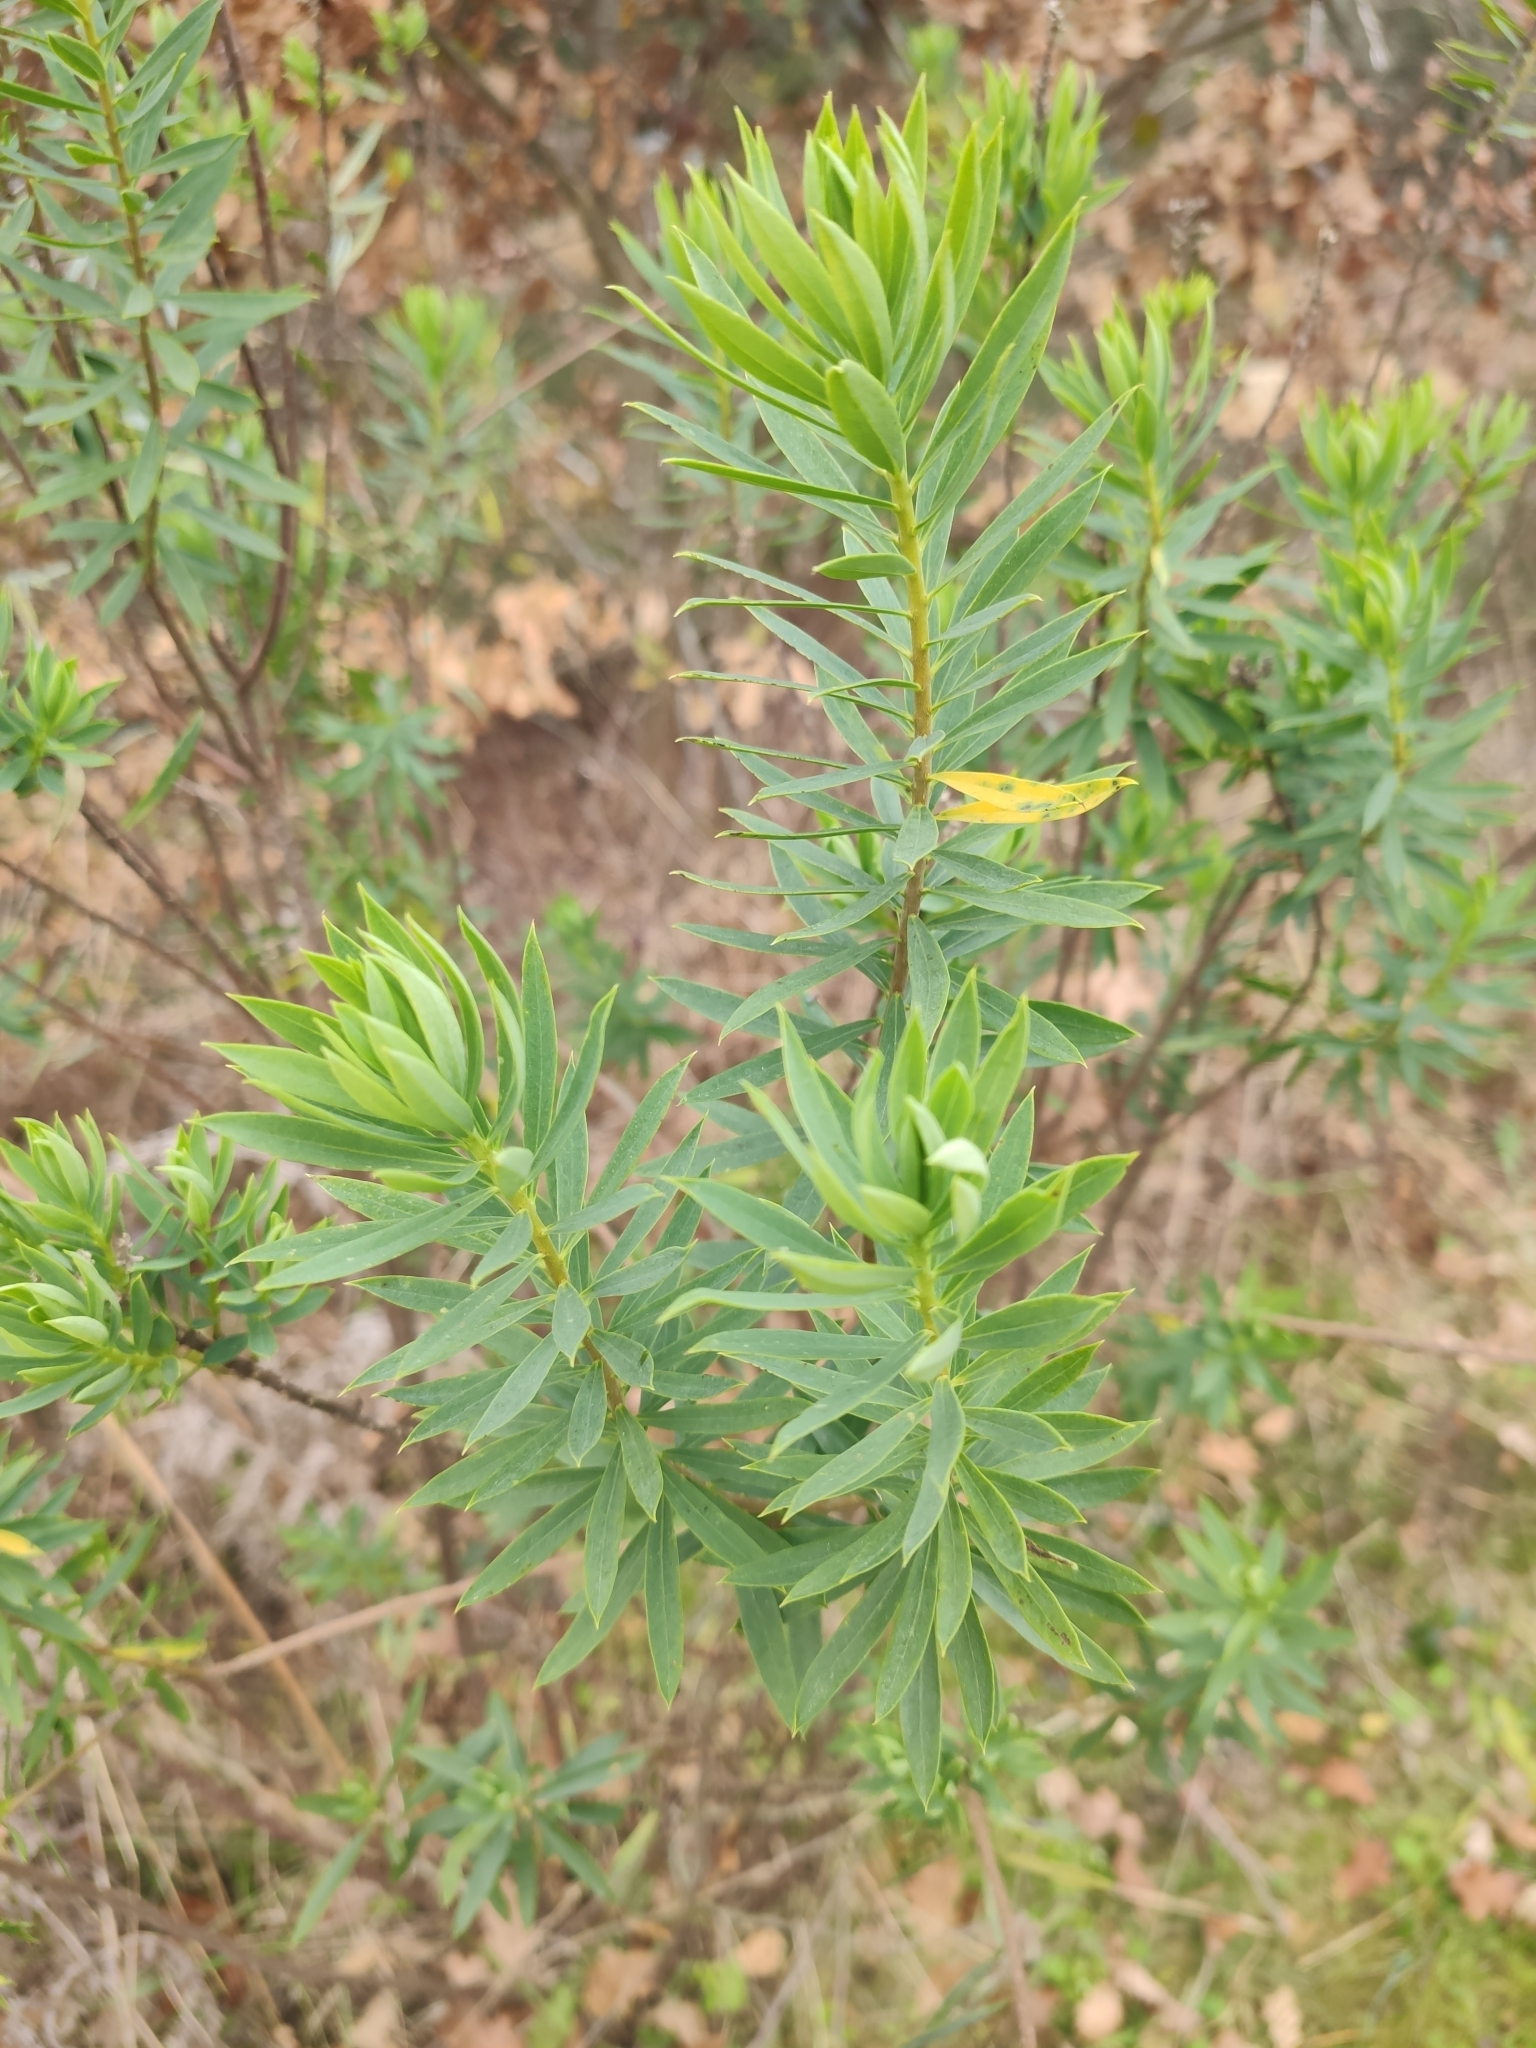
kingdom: Plantae
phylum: Tracheophyta
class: Magnoliopsida
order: Malvales
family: Thymelaeaceae
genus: Daphne
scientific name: Daphne gnidium
